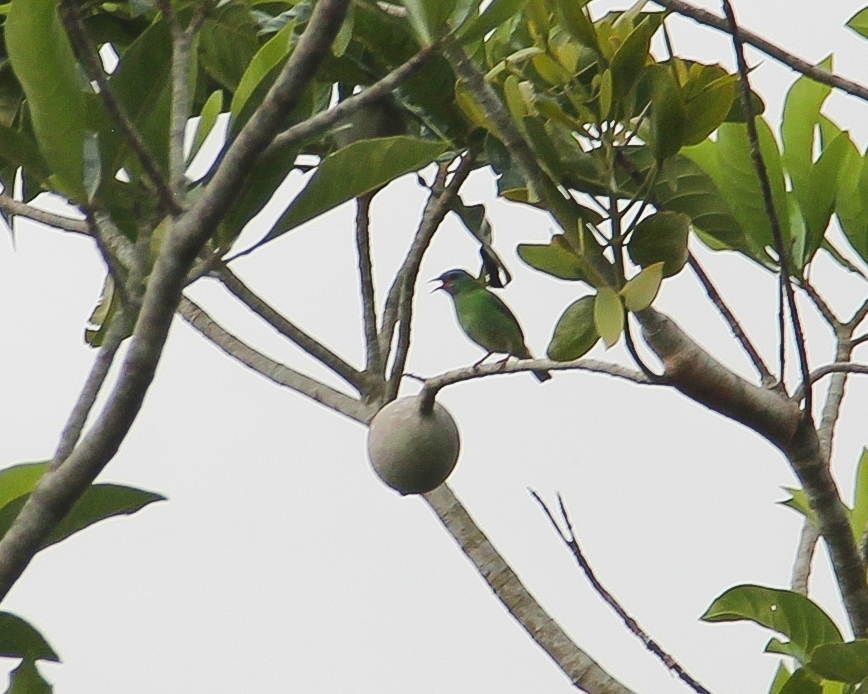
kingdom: Animalia
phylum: Chordata
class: Aves
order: Passeriformes
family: Thraupidae
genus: Dacnis
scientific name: Dacnis cayana
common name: Blue dacnis
